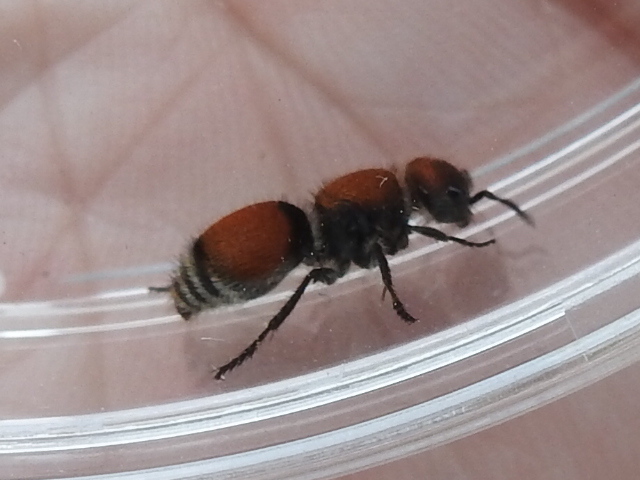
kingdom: Animalia
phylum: Arthropoda
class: Insecta
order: Hymenoptera
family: Mutillidae
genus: Pseudomethoca
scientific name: Pseudomethoca
